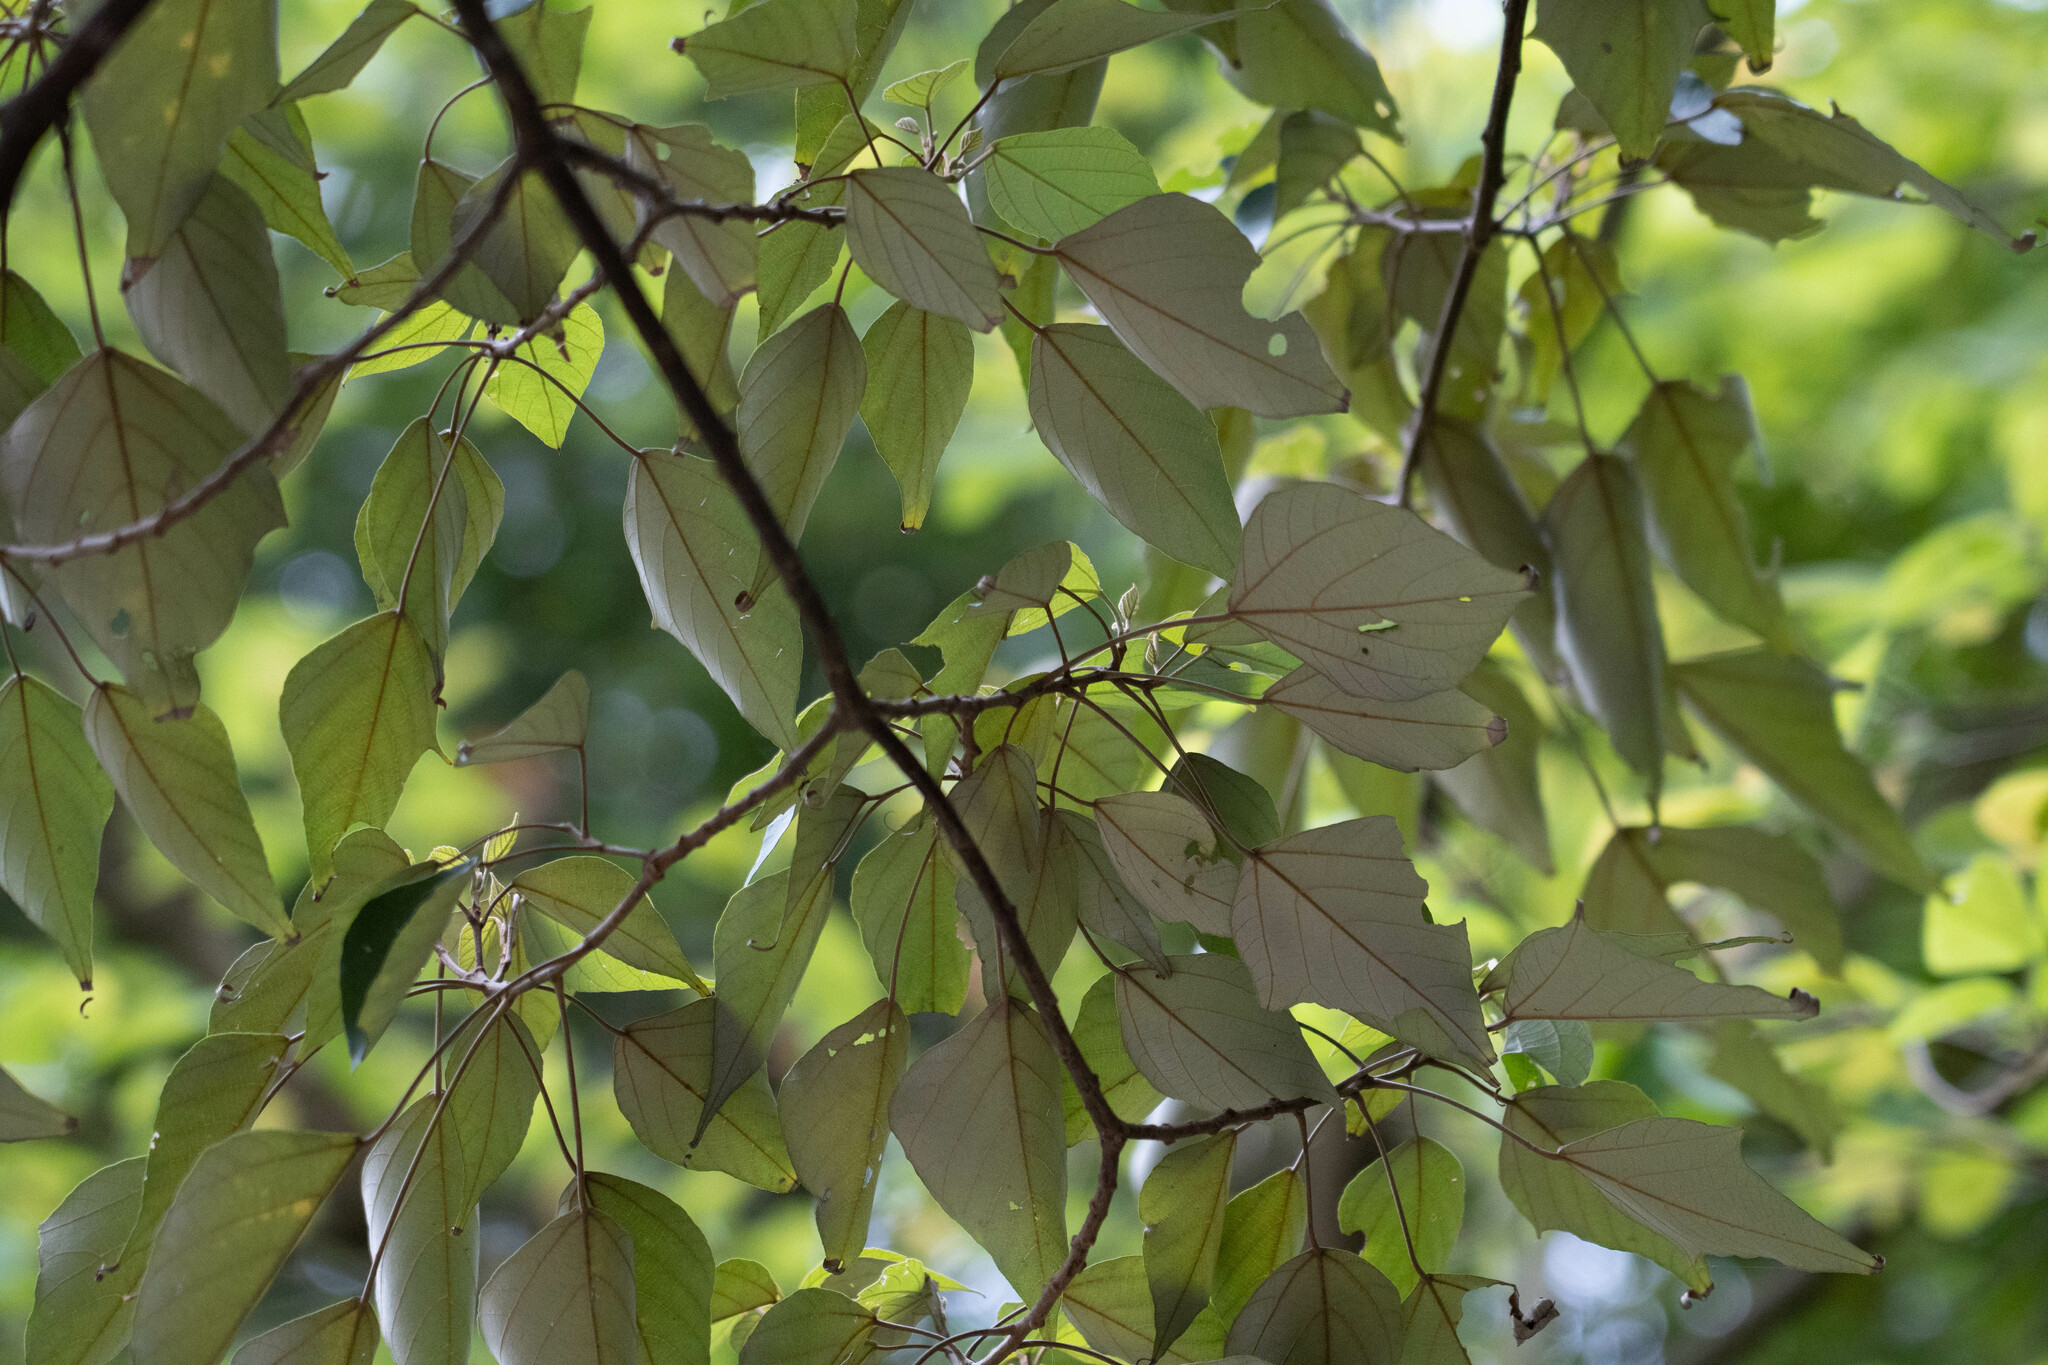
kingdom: Plantae
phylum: Tracheophyta
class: Magnoliopsida
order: Malpighiales
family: Euphorbiaceae
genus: Mallotus
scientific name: Mallotus paniculatus
